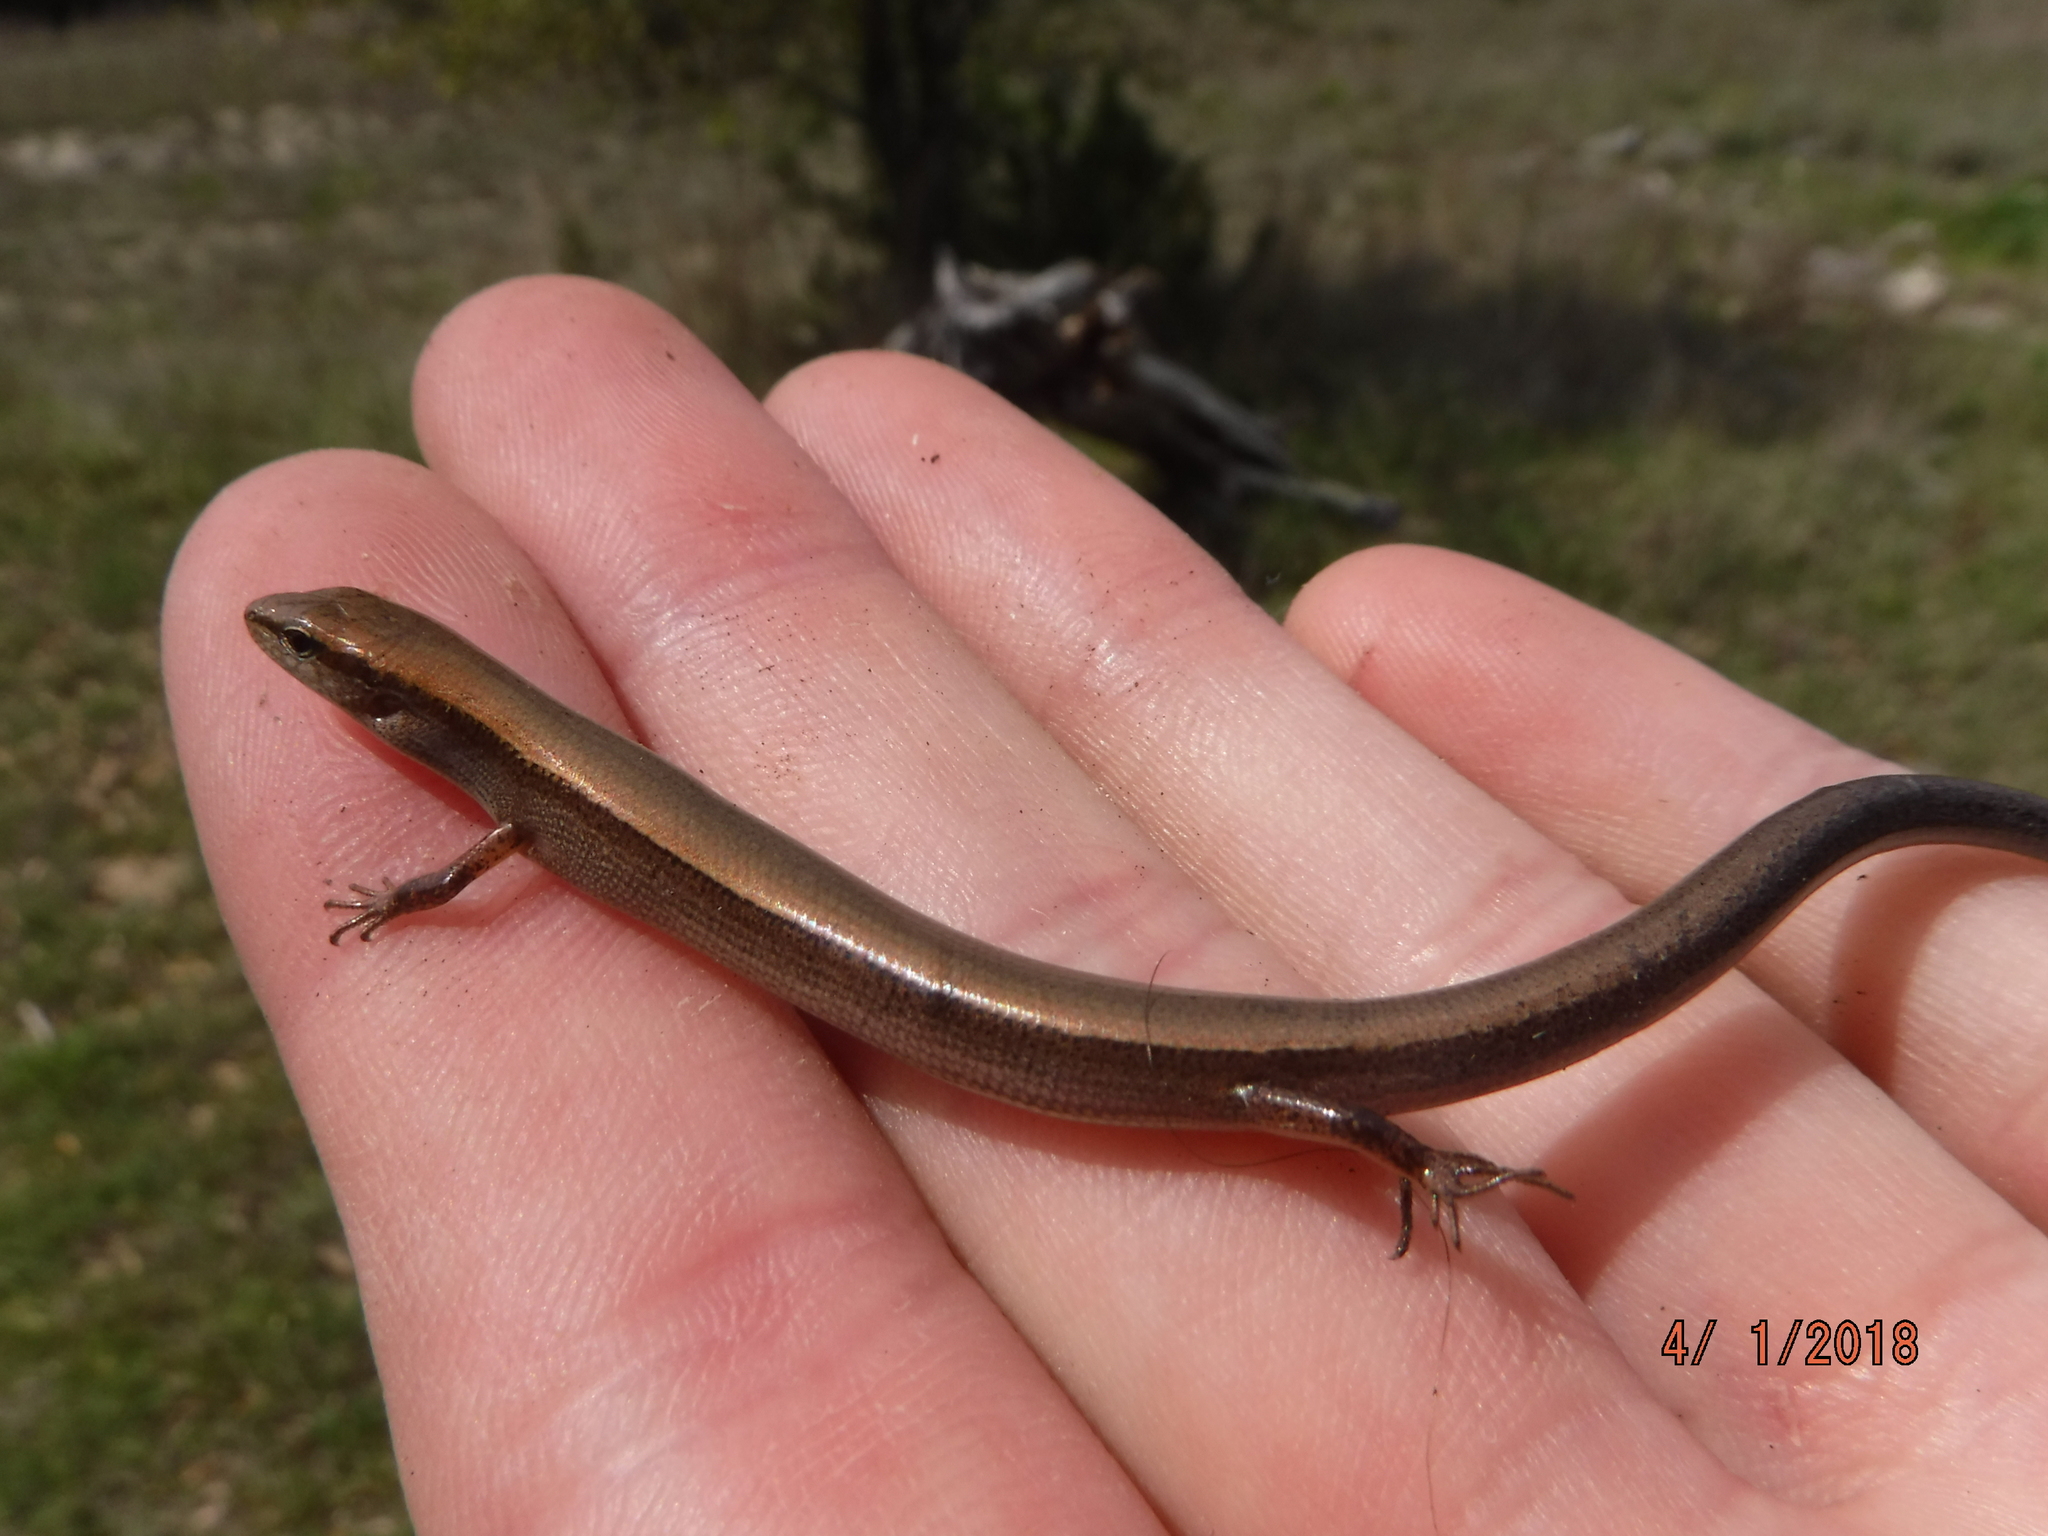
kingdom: Animalia
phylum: Chordata
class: Squamata
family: Scincidae
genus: Scincella
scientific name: Scincella lateralis
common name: Ground skink
